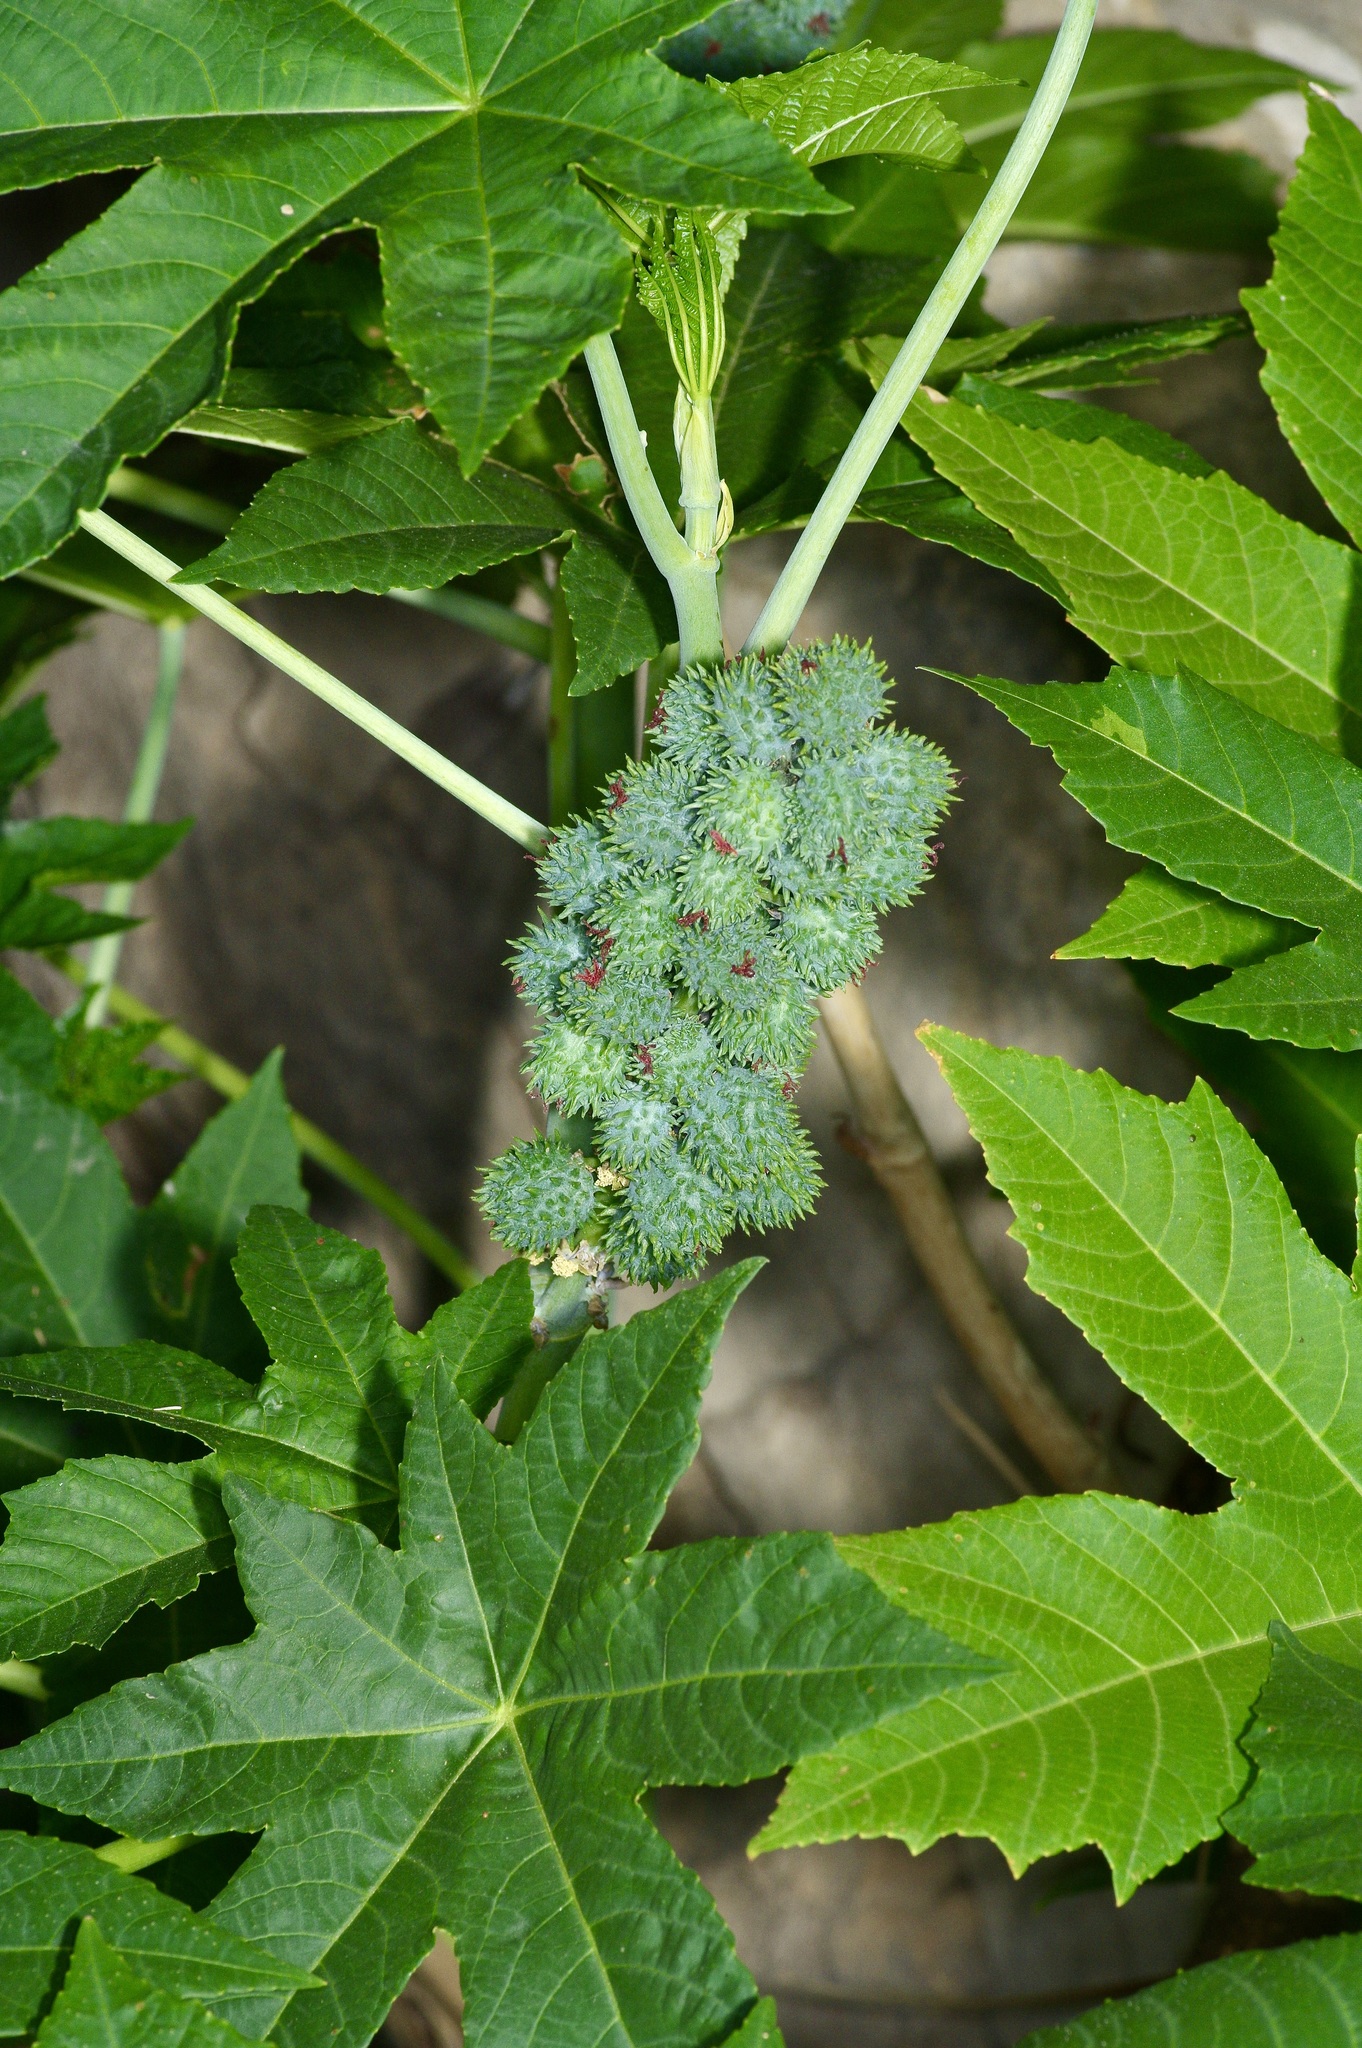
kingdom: Plantae
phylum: Tracheophyta
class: Magnoliopsida
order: Malpighiales
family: Euphorbiaceae
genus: Ricinus
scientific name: Ricinus communis
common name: Castor-oil-plant
